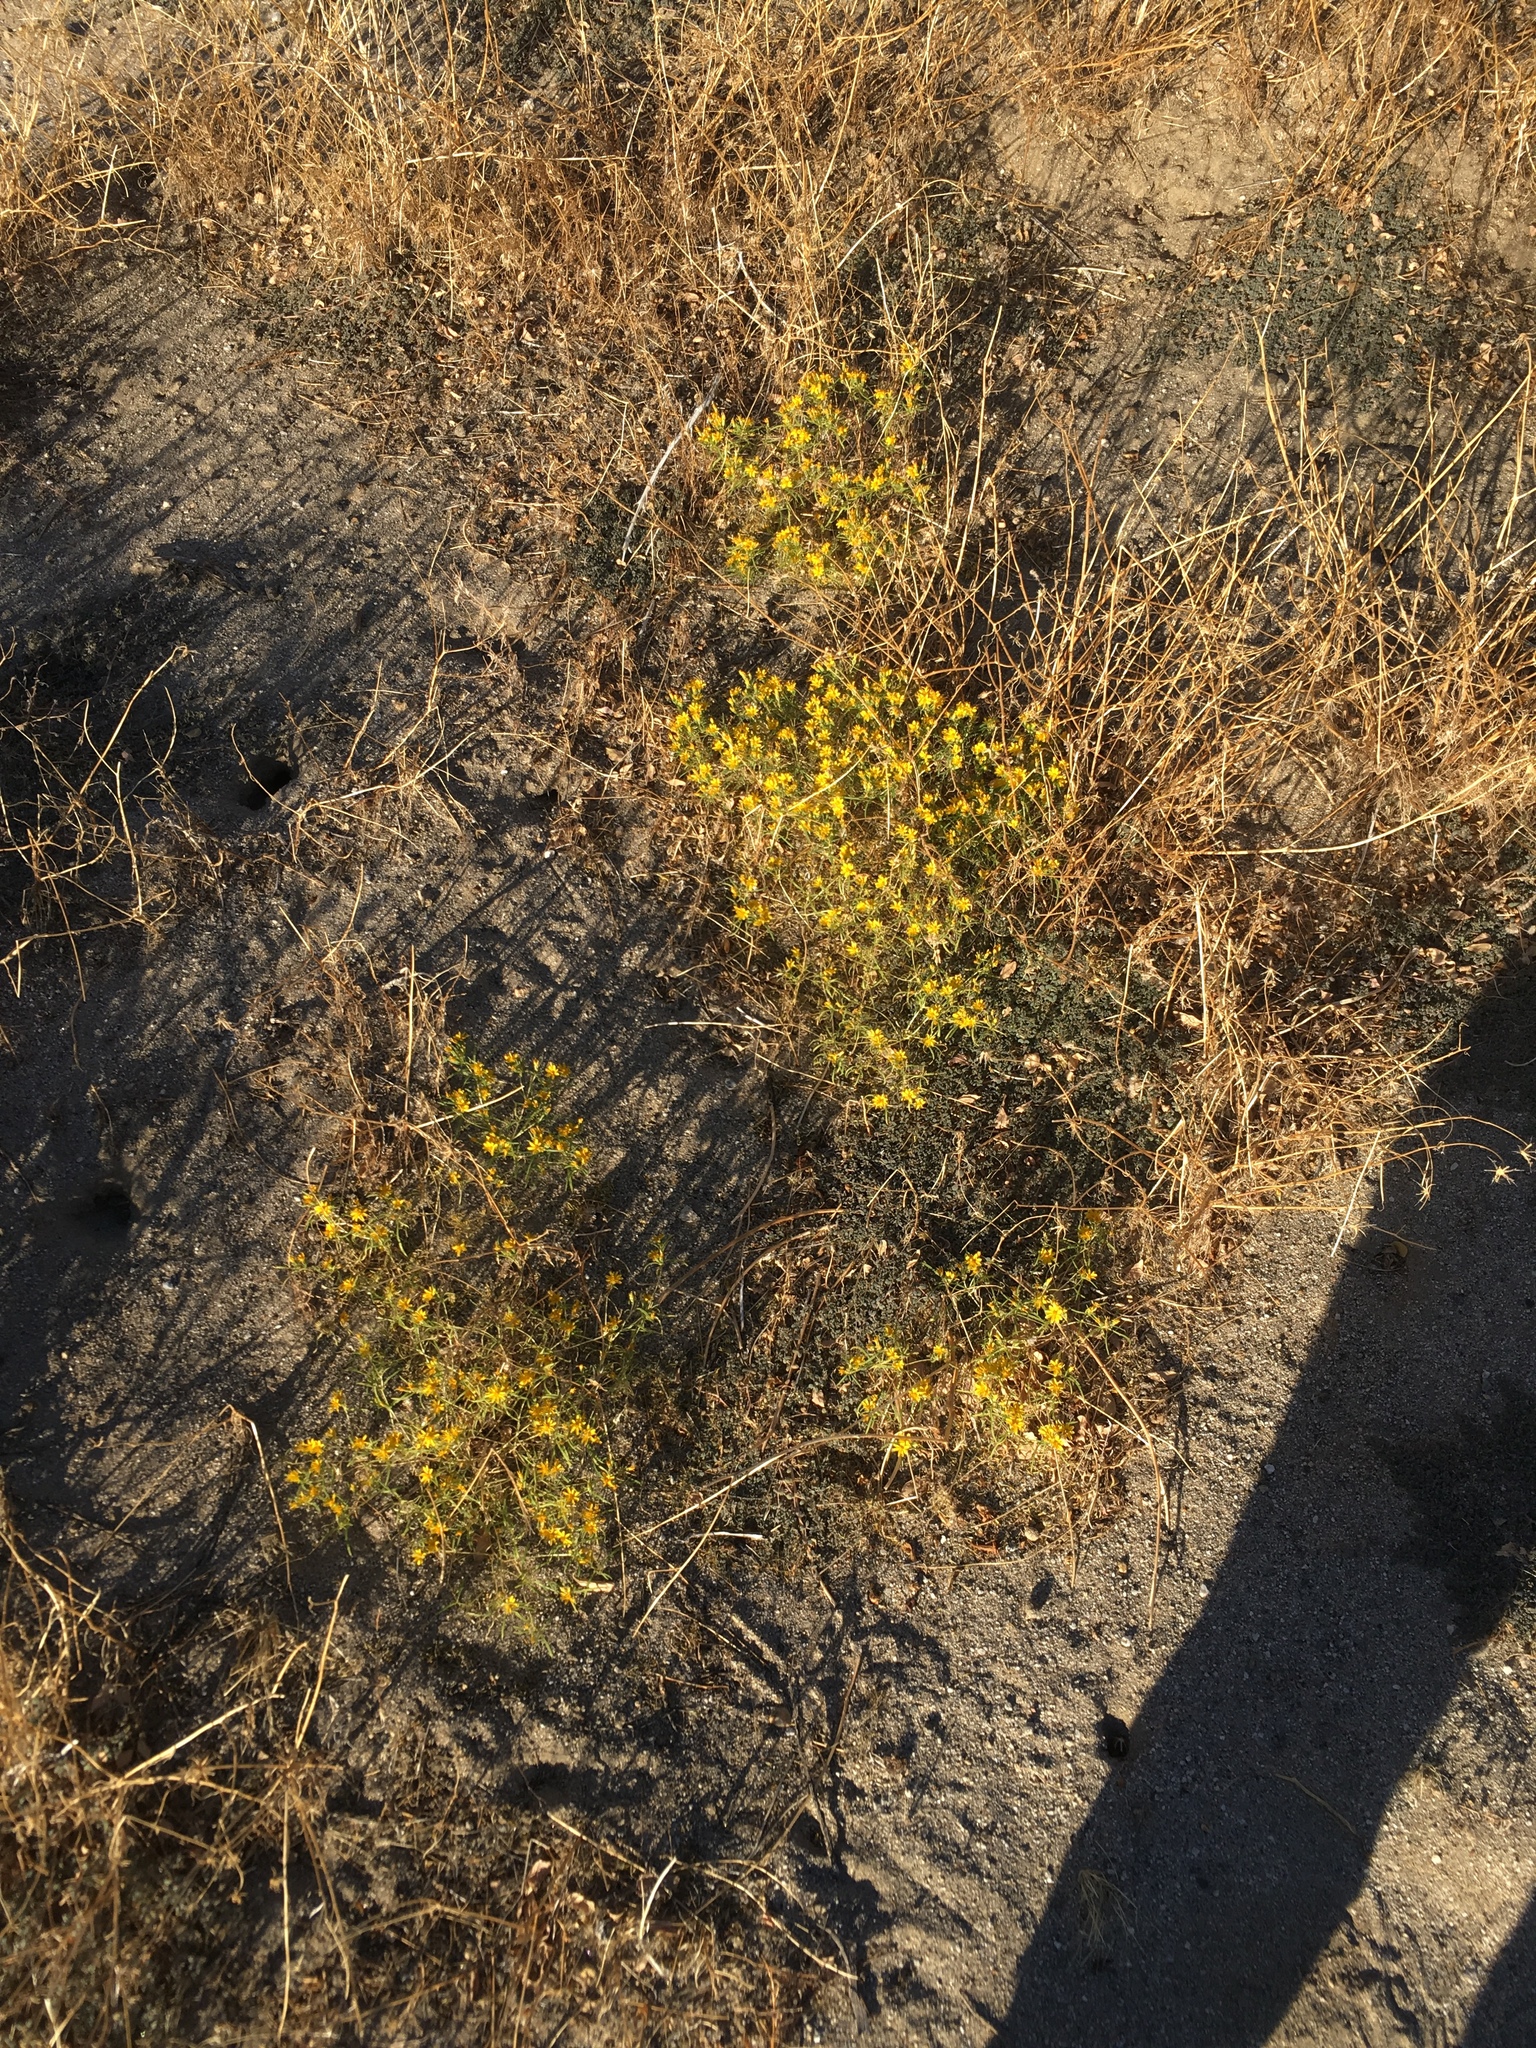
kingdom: Plantae
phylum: Tracheophyta
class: Magnoliopsida
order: Asterales
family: Asteraceae
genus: Pectis
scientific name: Pectis papposa
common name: Many-bristle chinchweed
